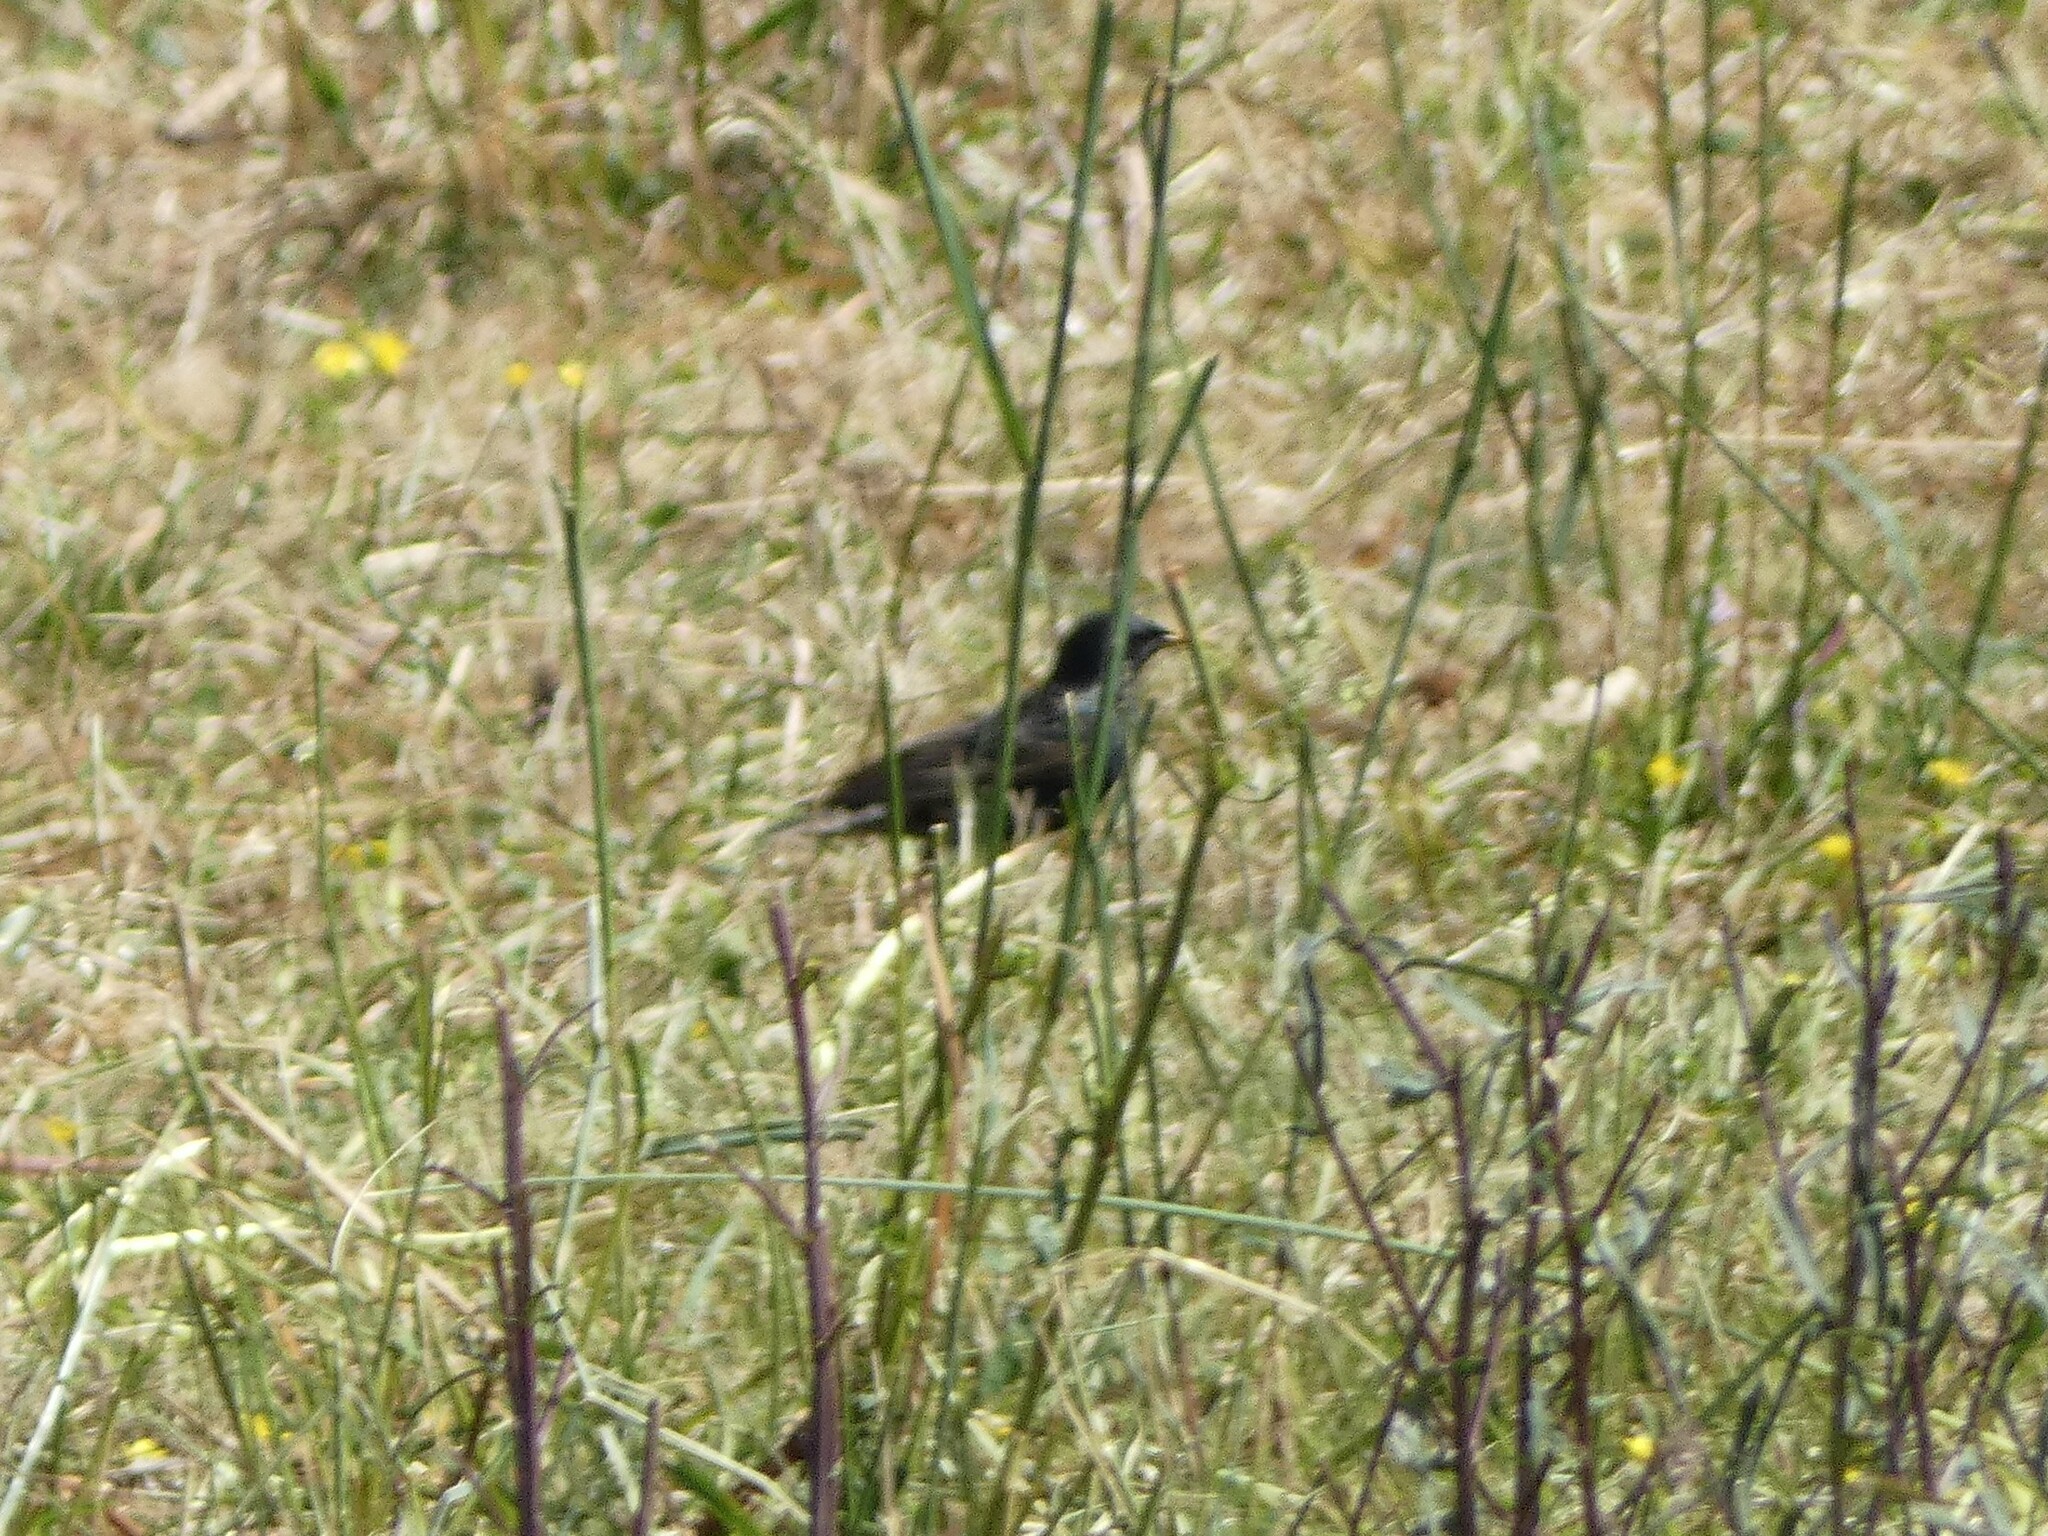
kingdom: Animalia
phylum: Chordata
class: Aves
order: Passeriformes
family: Sturnidae
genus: Sturnus
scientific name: Sturnus vulgaris
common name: Common starling
